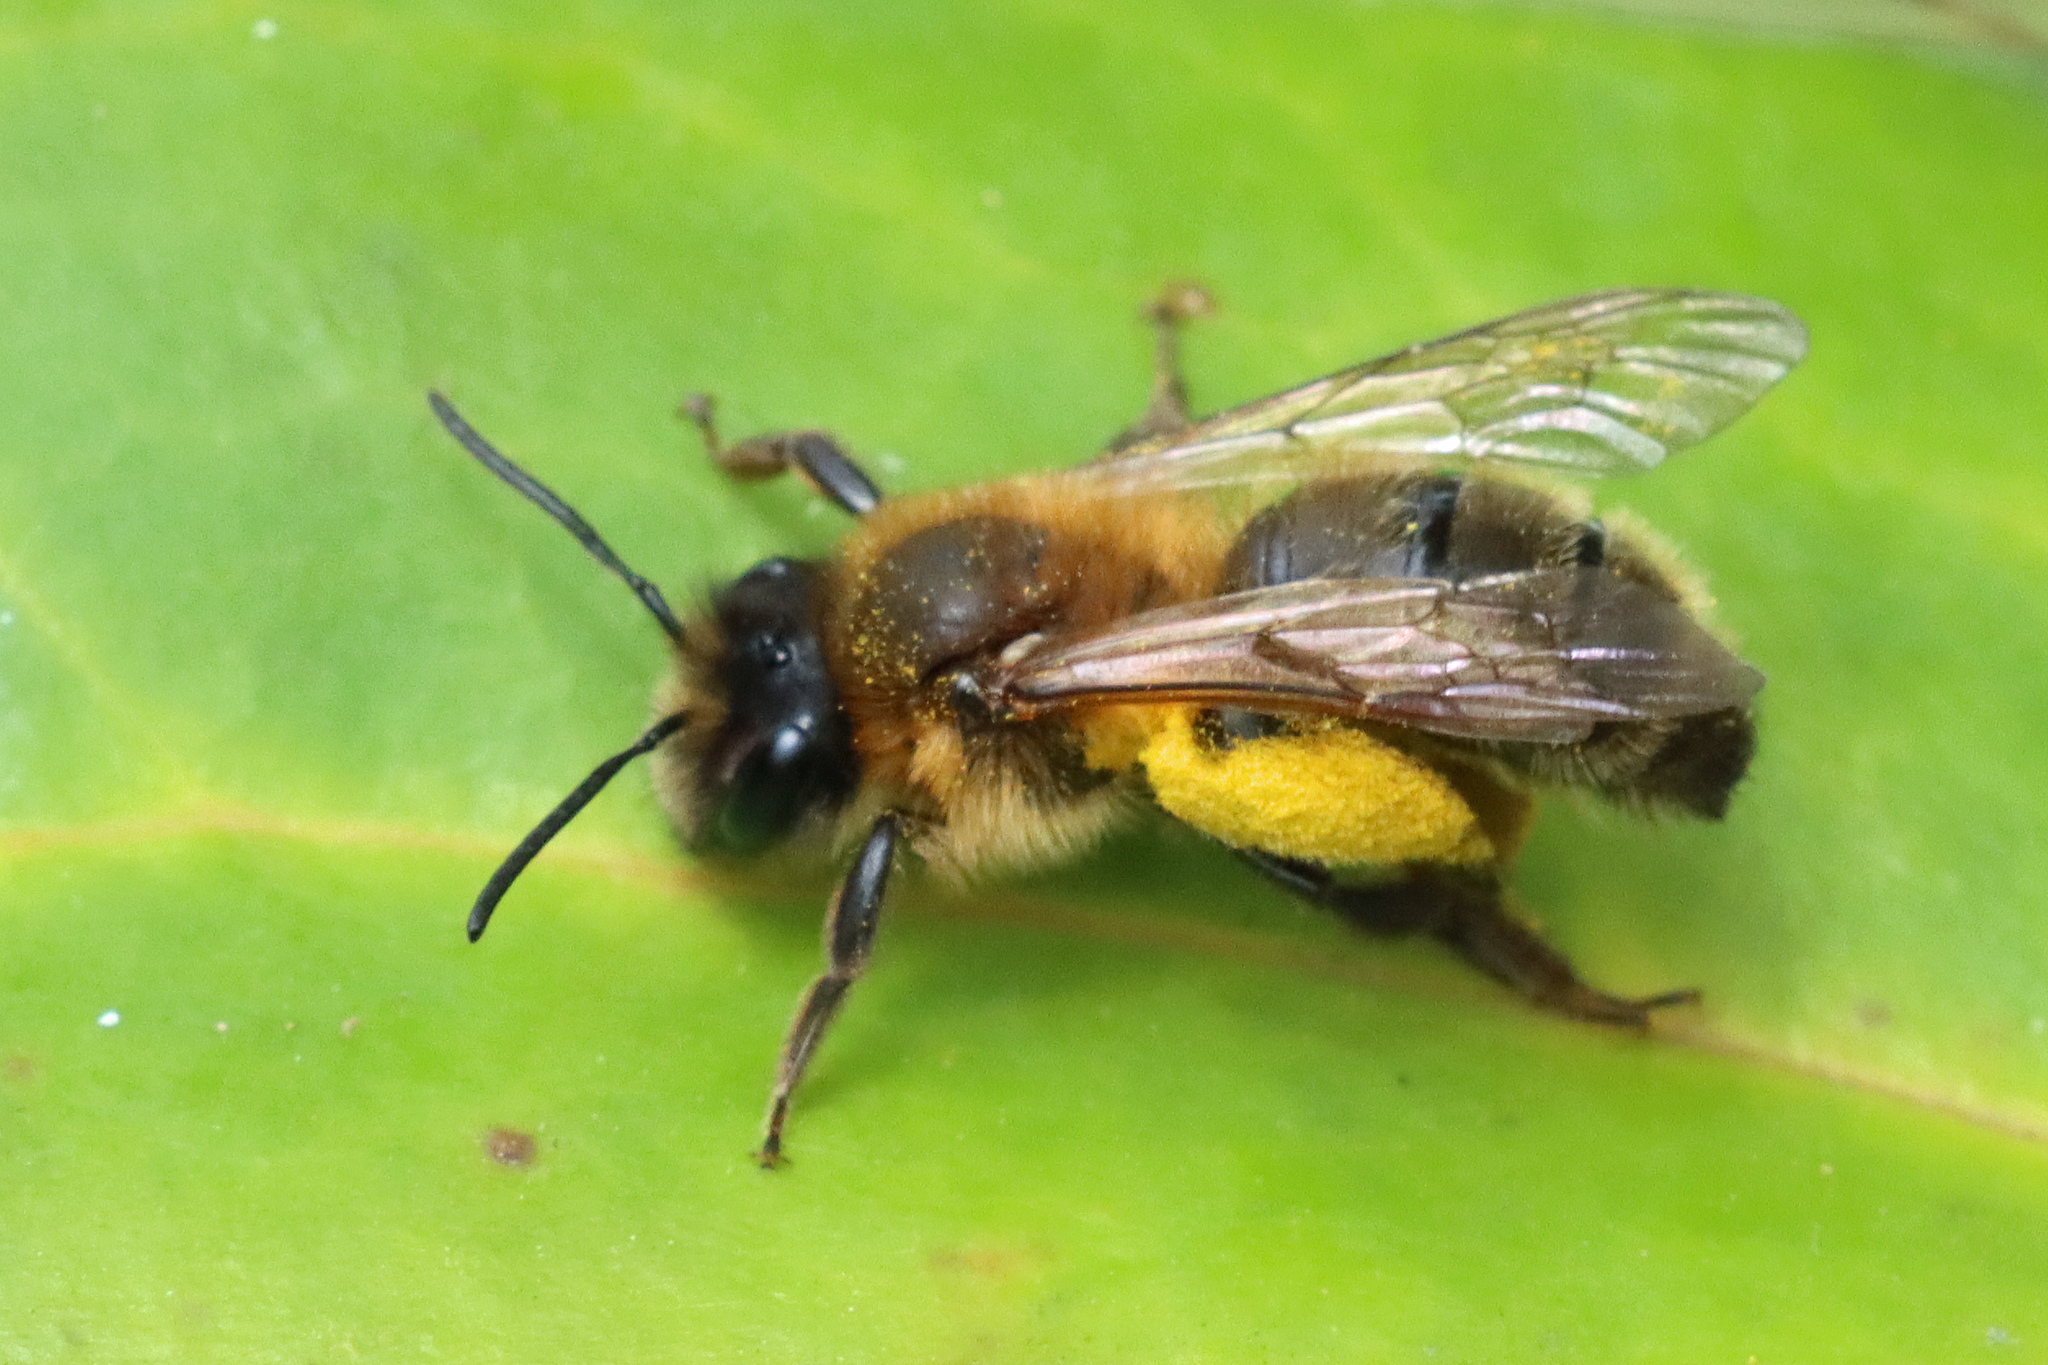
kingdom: Animalia
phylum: Arthropoda
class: Insecta
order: Hymenoptera
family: Andrenidae
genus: Andrena
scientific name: Andrena nigroaenea
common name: Buffish mining bee
